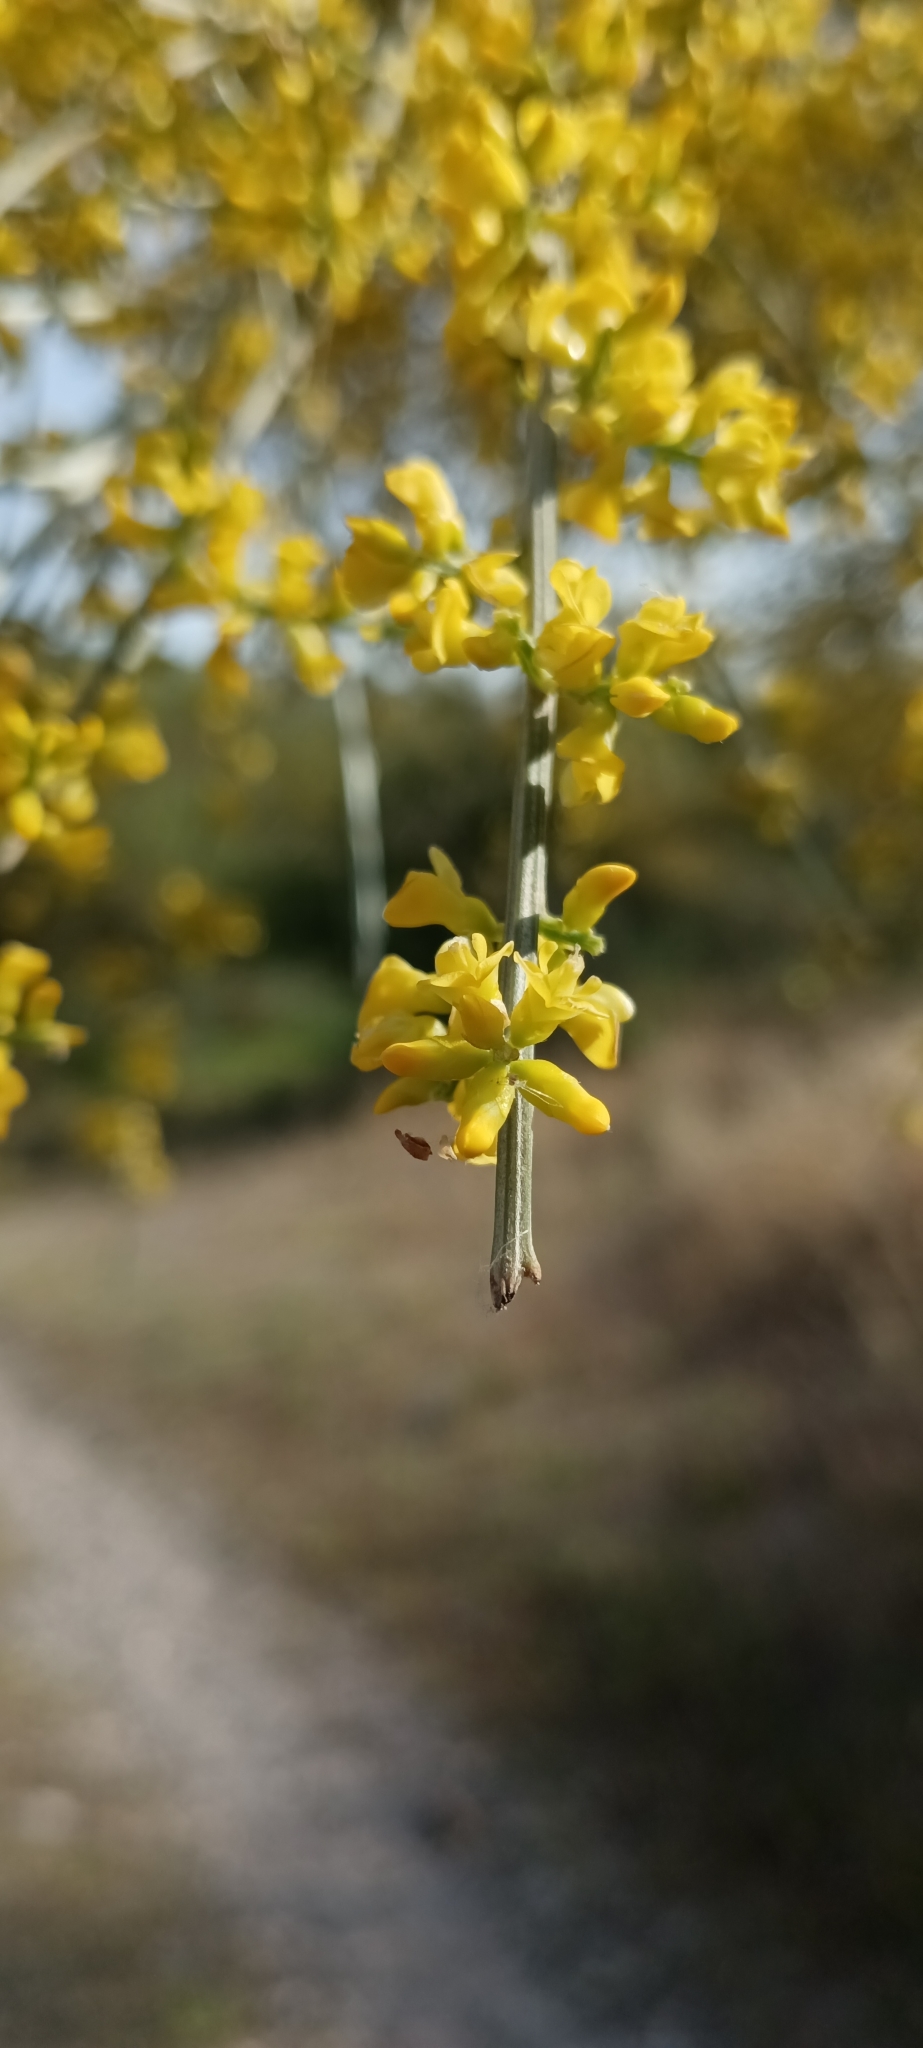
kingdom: Plantae
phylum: Tracheophyta
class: Magnoliopsida
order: Fabales
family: Fabaceae
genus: Retama
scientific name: Retama sphaerocarpa
